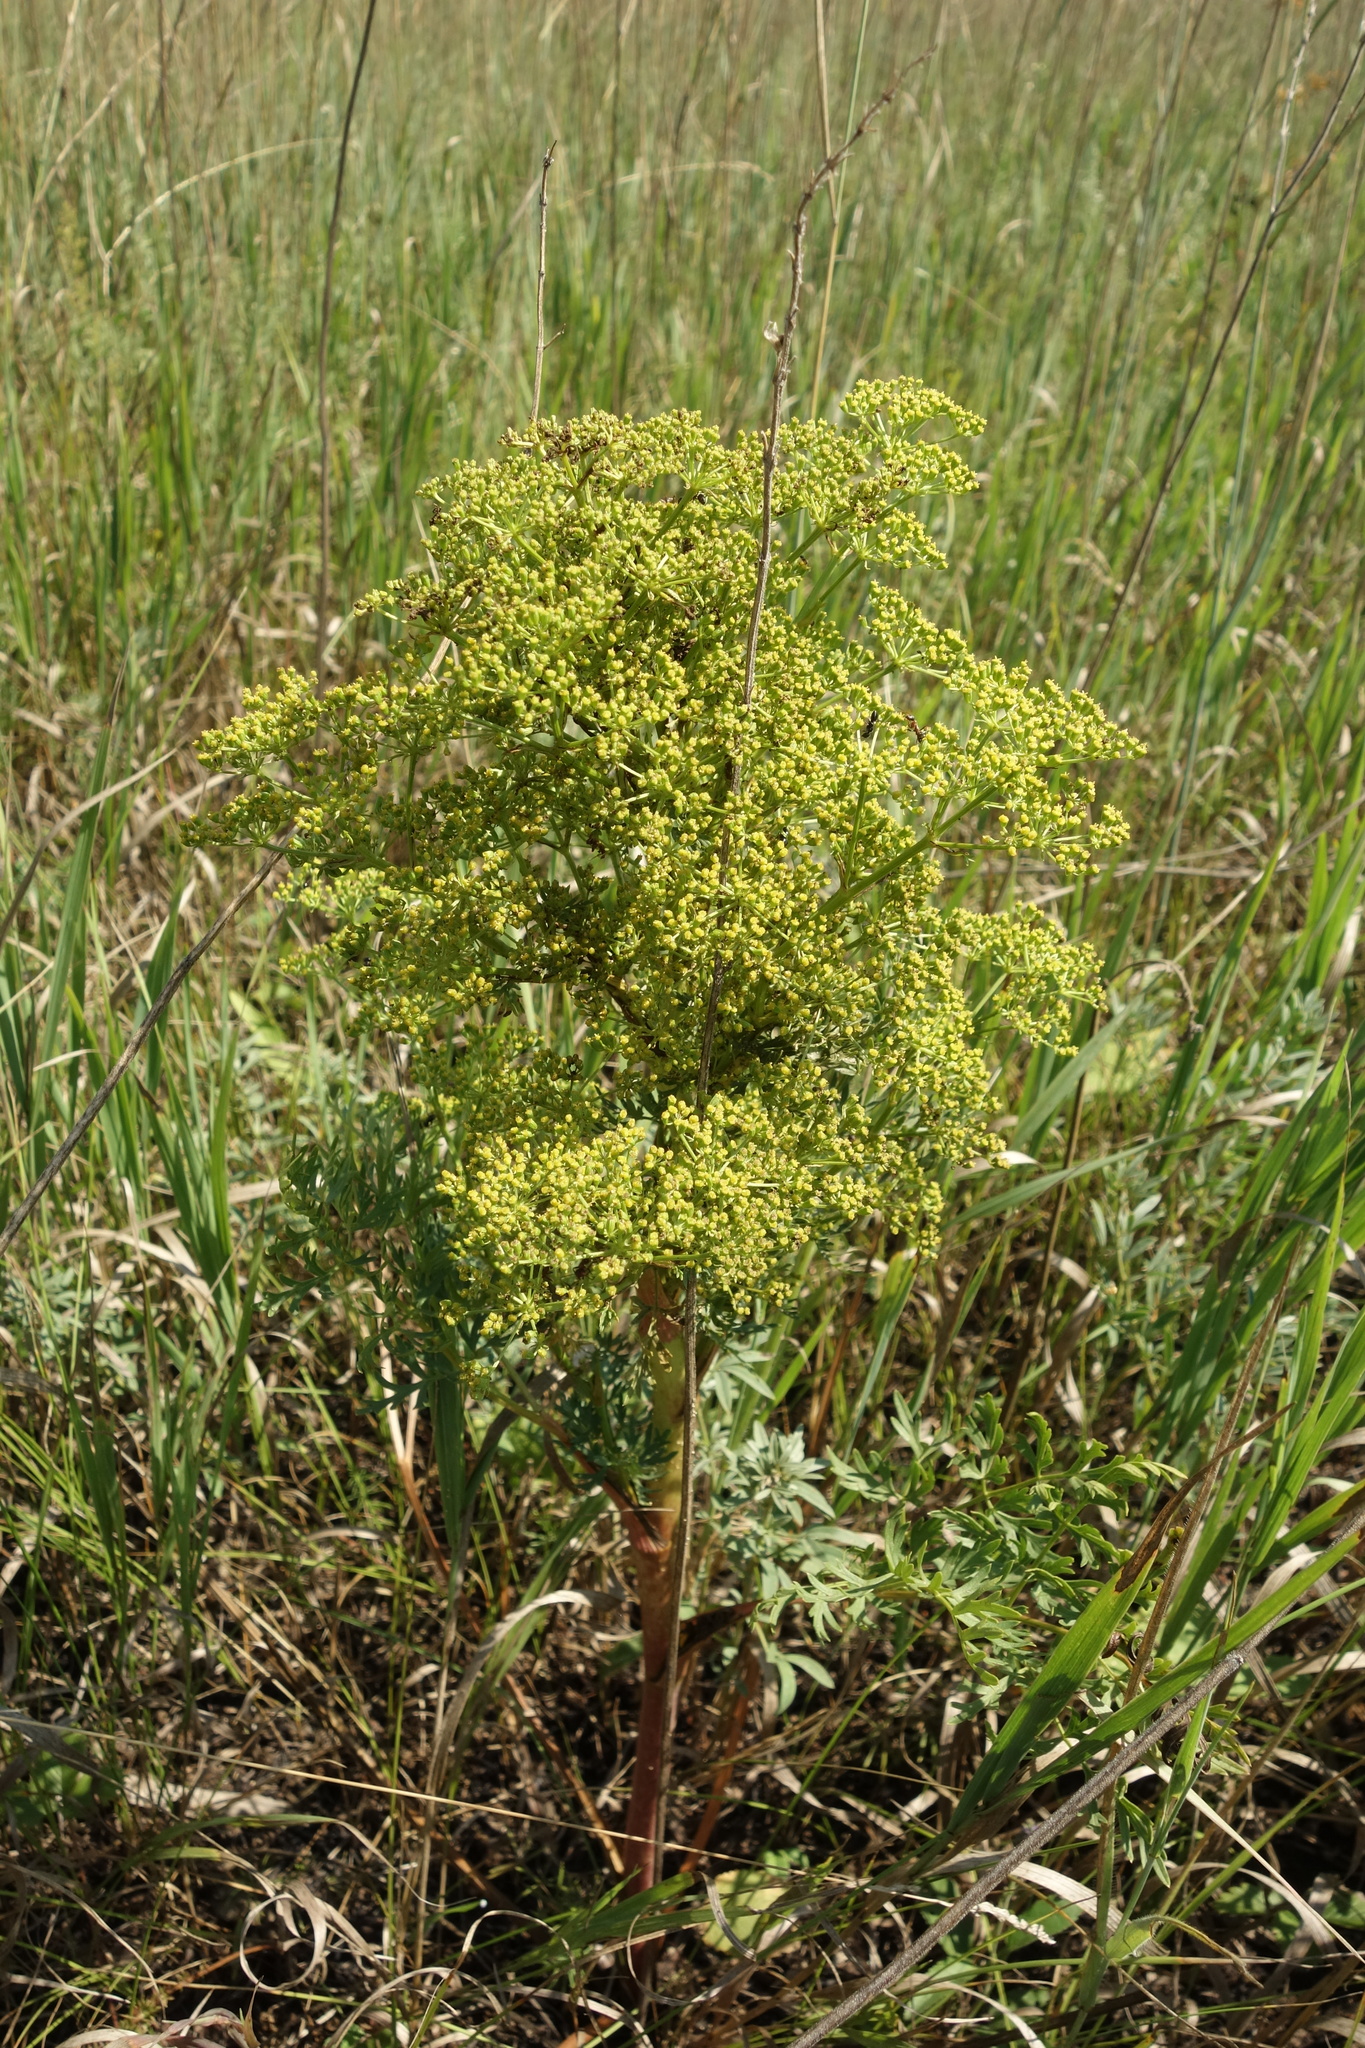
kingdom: Plantae
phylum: Tracheophyta
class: Magnoliopsida
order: Apiales
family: Apiaceae
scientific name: Apiaceae
